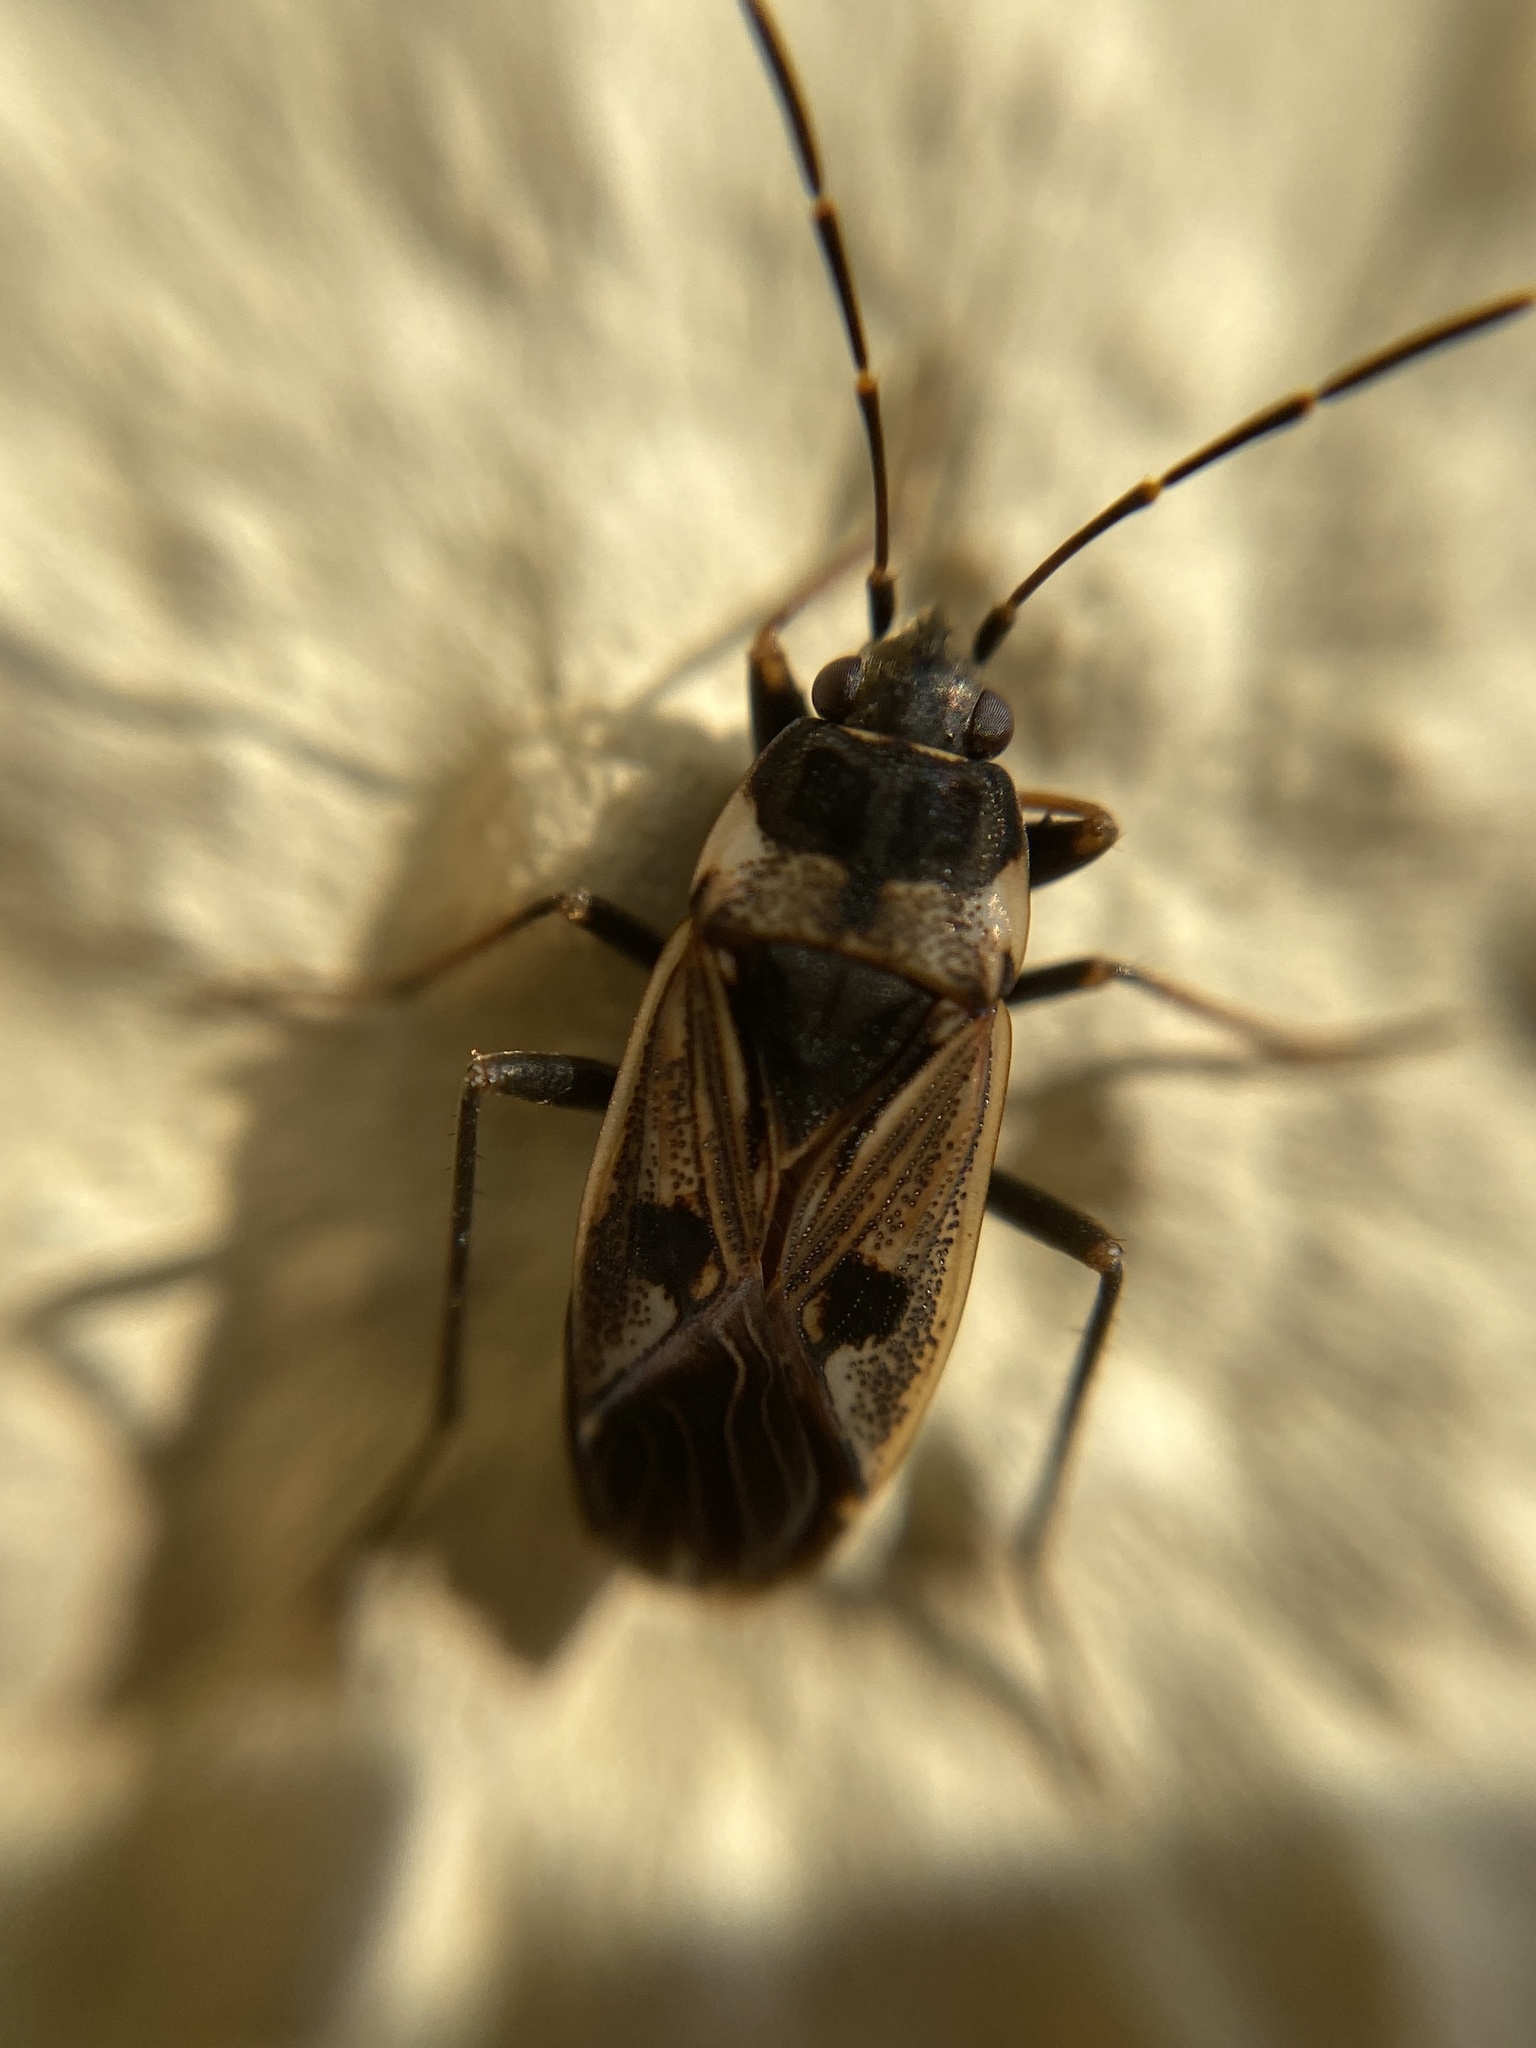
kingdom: Animalia
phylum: Arthropoda
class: Insecta
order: Hemiptera
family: Rhyparochromidae
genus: Rhyparochromus
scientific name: Rhyparochromus vulgaris
